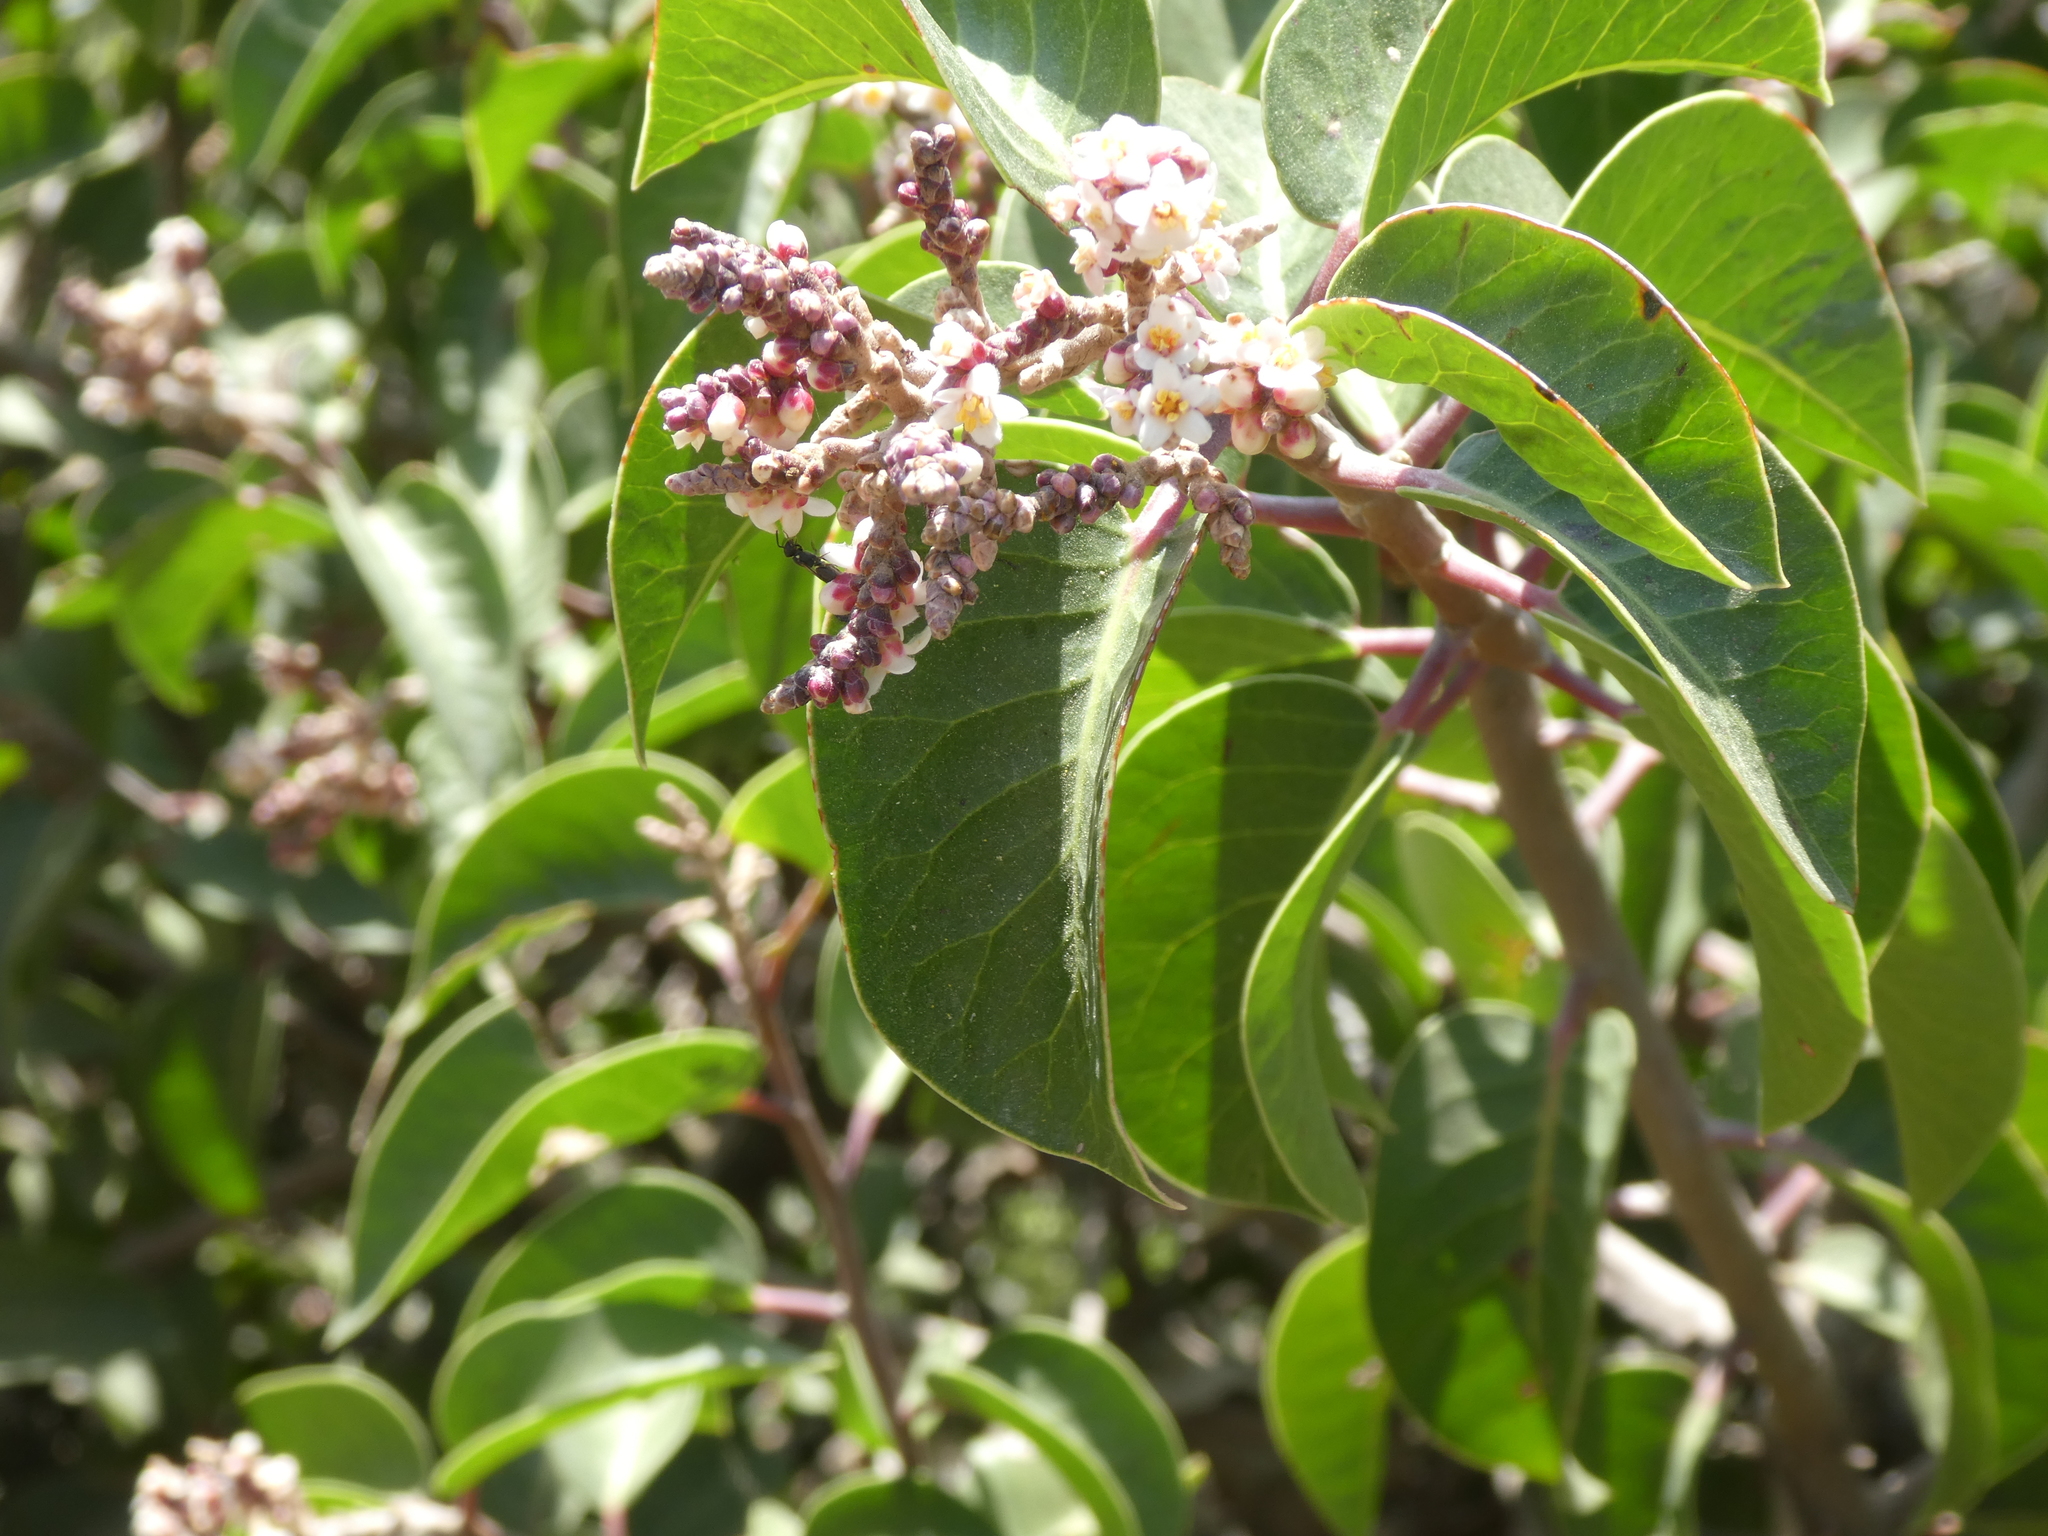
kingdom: Animalia
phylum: Arthropoda
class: Insecta
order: Hymenoptera
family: Colletidae
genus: Hylaeus
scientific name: Hylaeus
